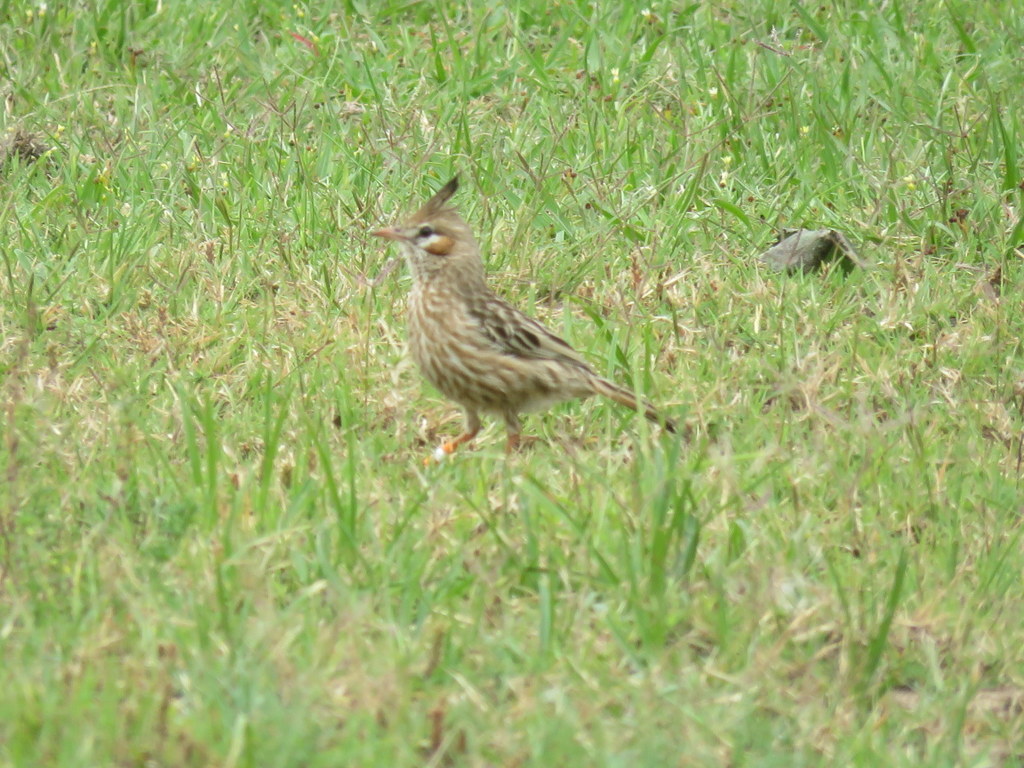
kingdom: Animalia
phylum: Chordata
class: Aves
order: Passeriformes
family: Furnariidae
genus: Coryphistera
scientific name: Coryphistera alaudina
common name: Lark-like brushrunner
